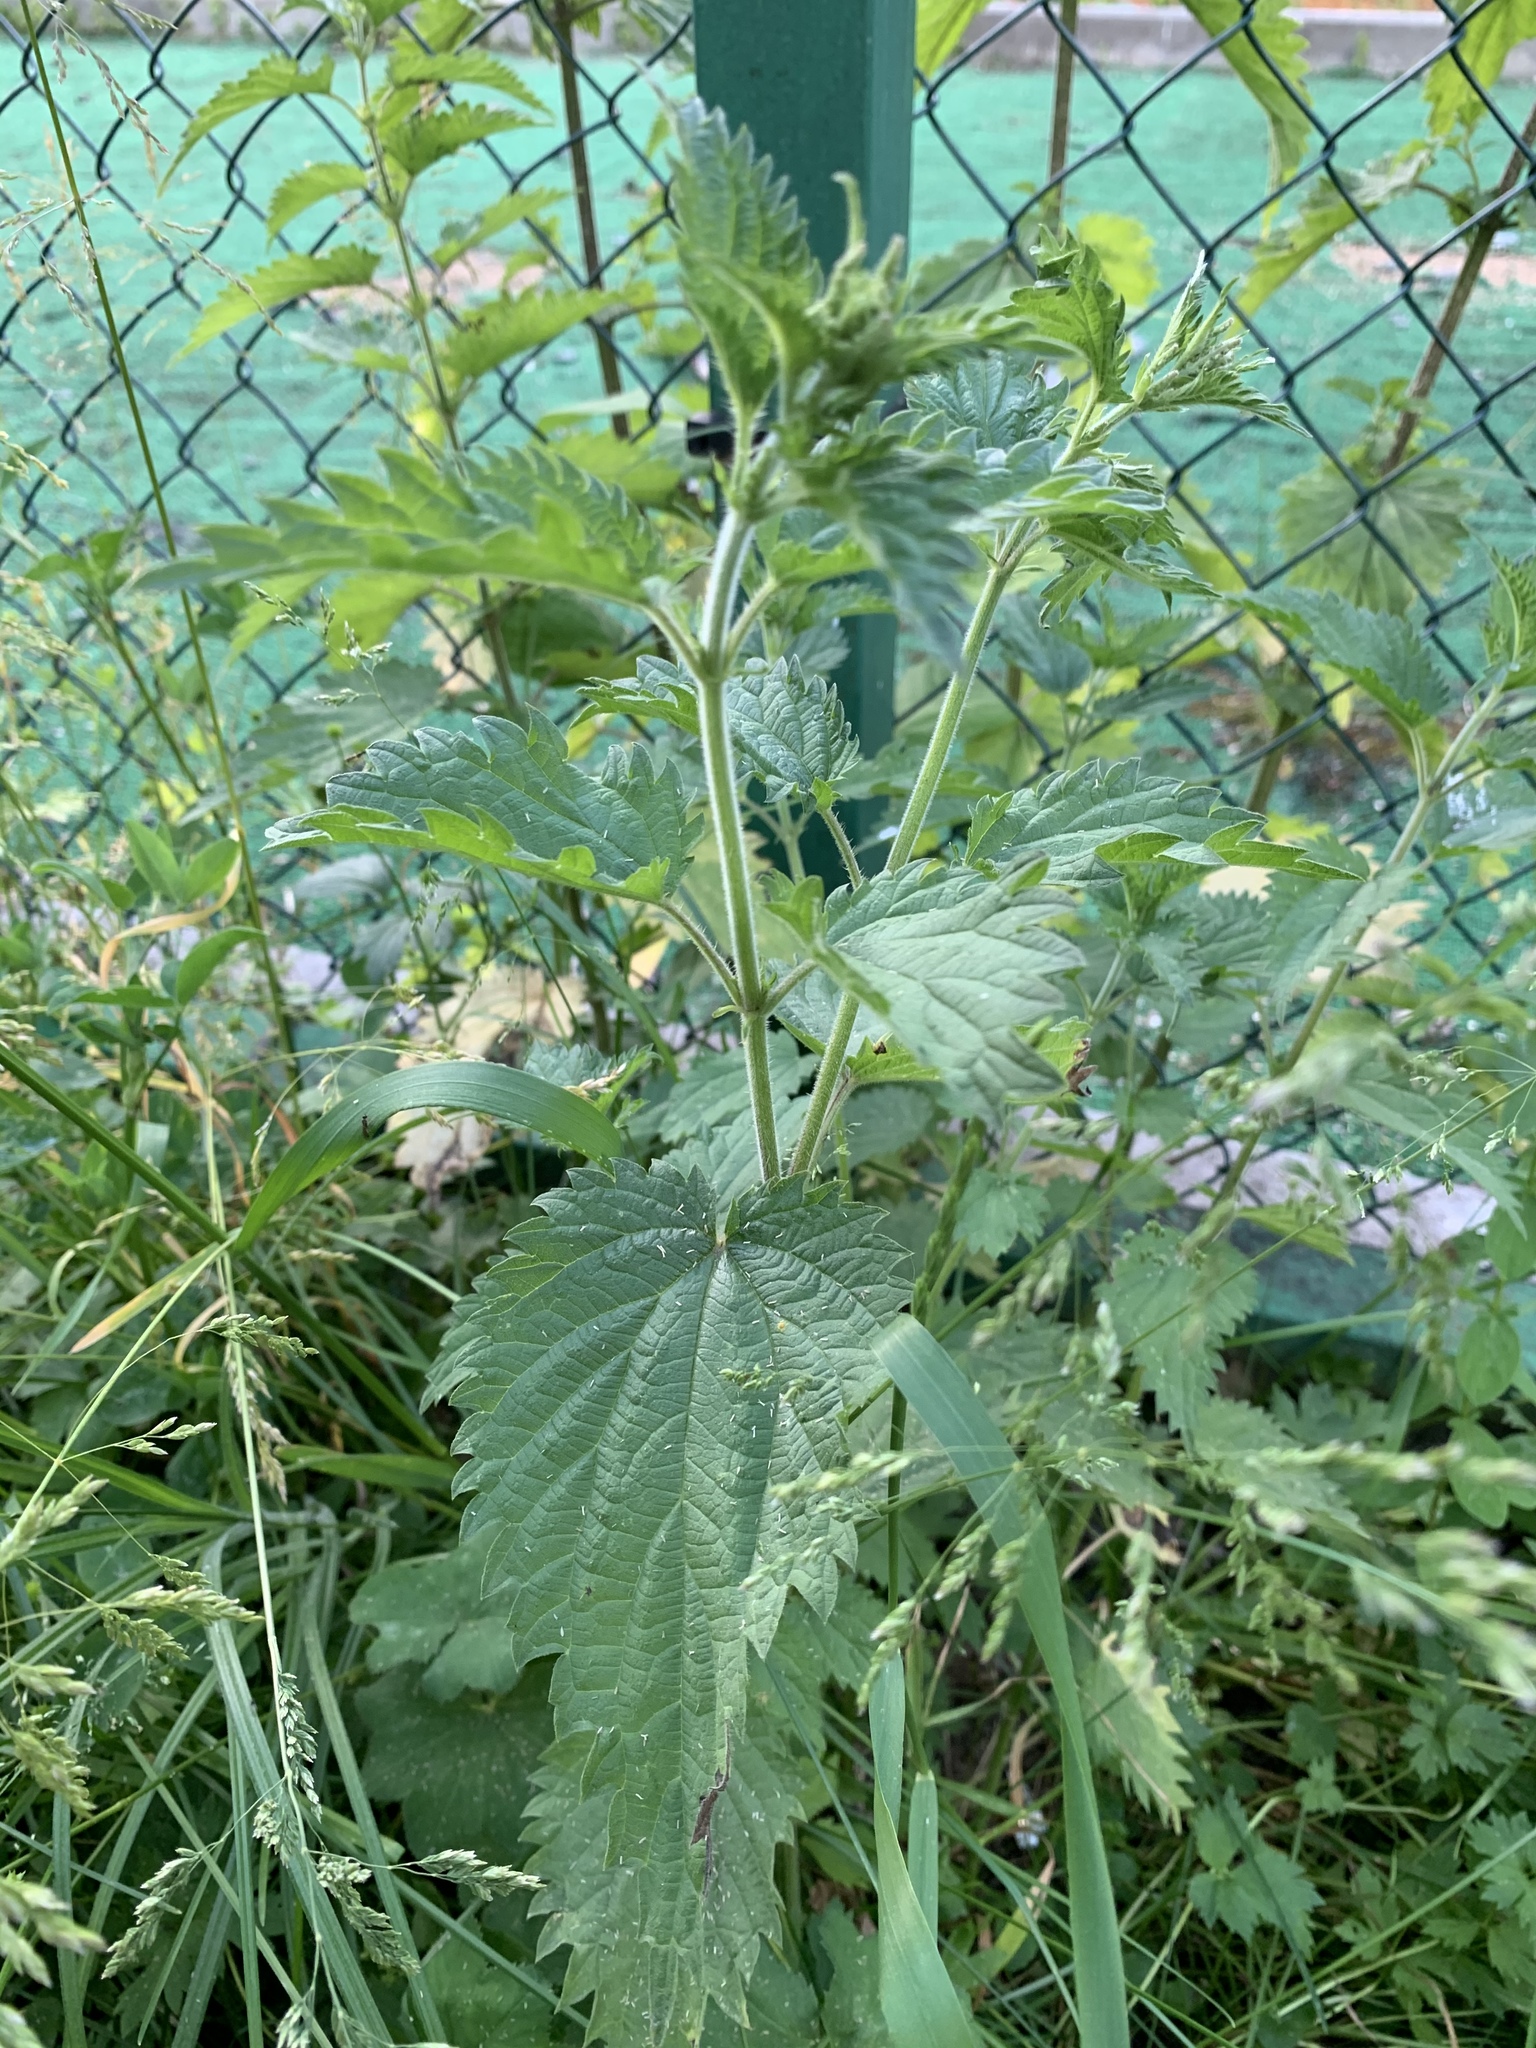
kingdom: Plantae
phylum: Tracheophyta
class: Magnoliopsida
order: Rosales
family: Urticaceae
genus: Urtica
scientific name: Urtica dioica
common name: Common nettle
